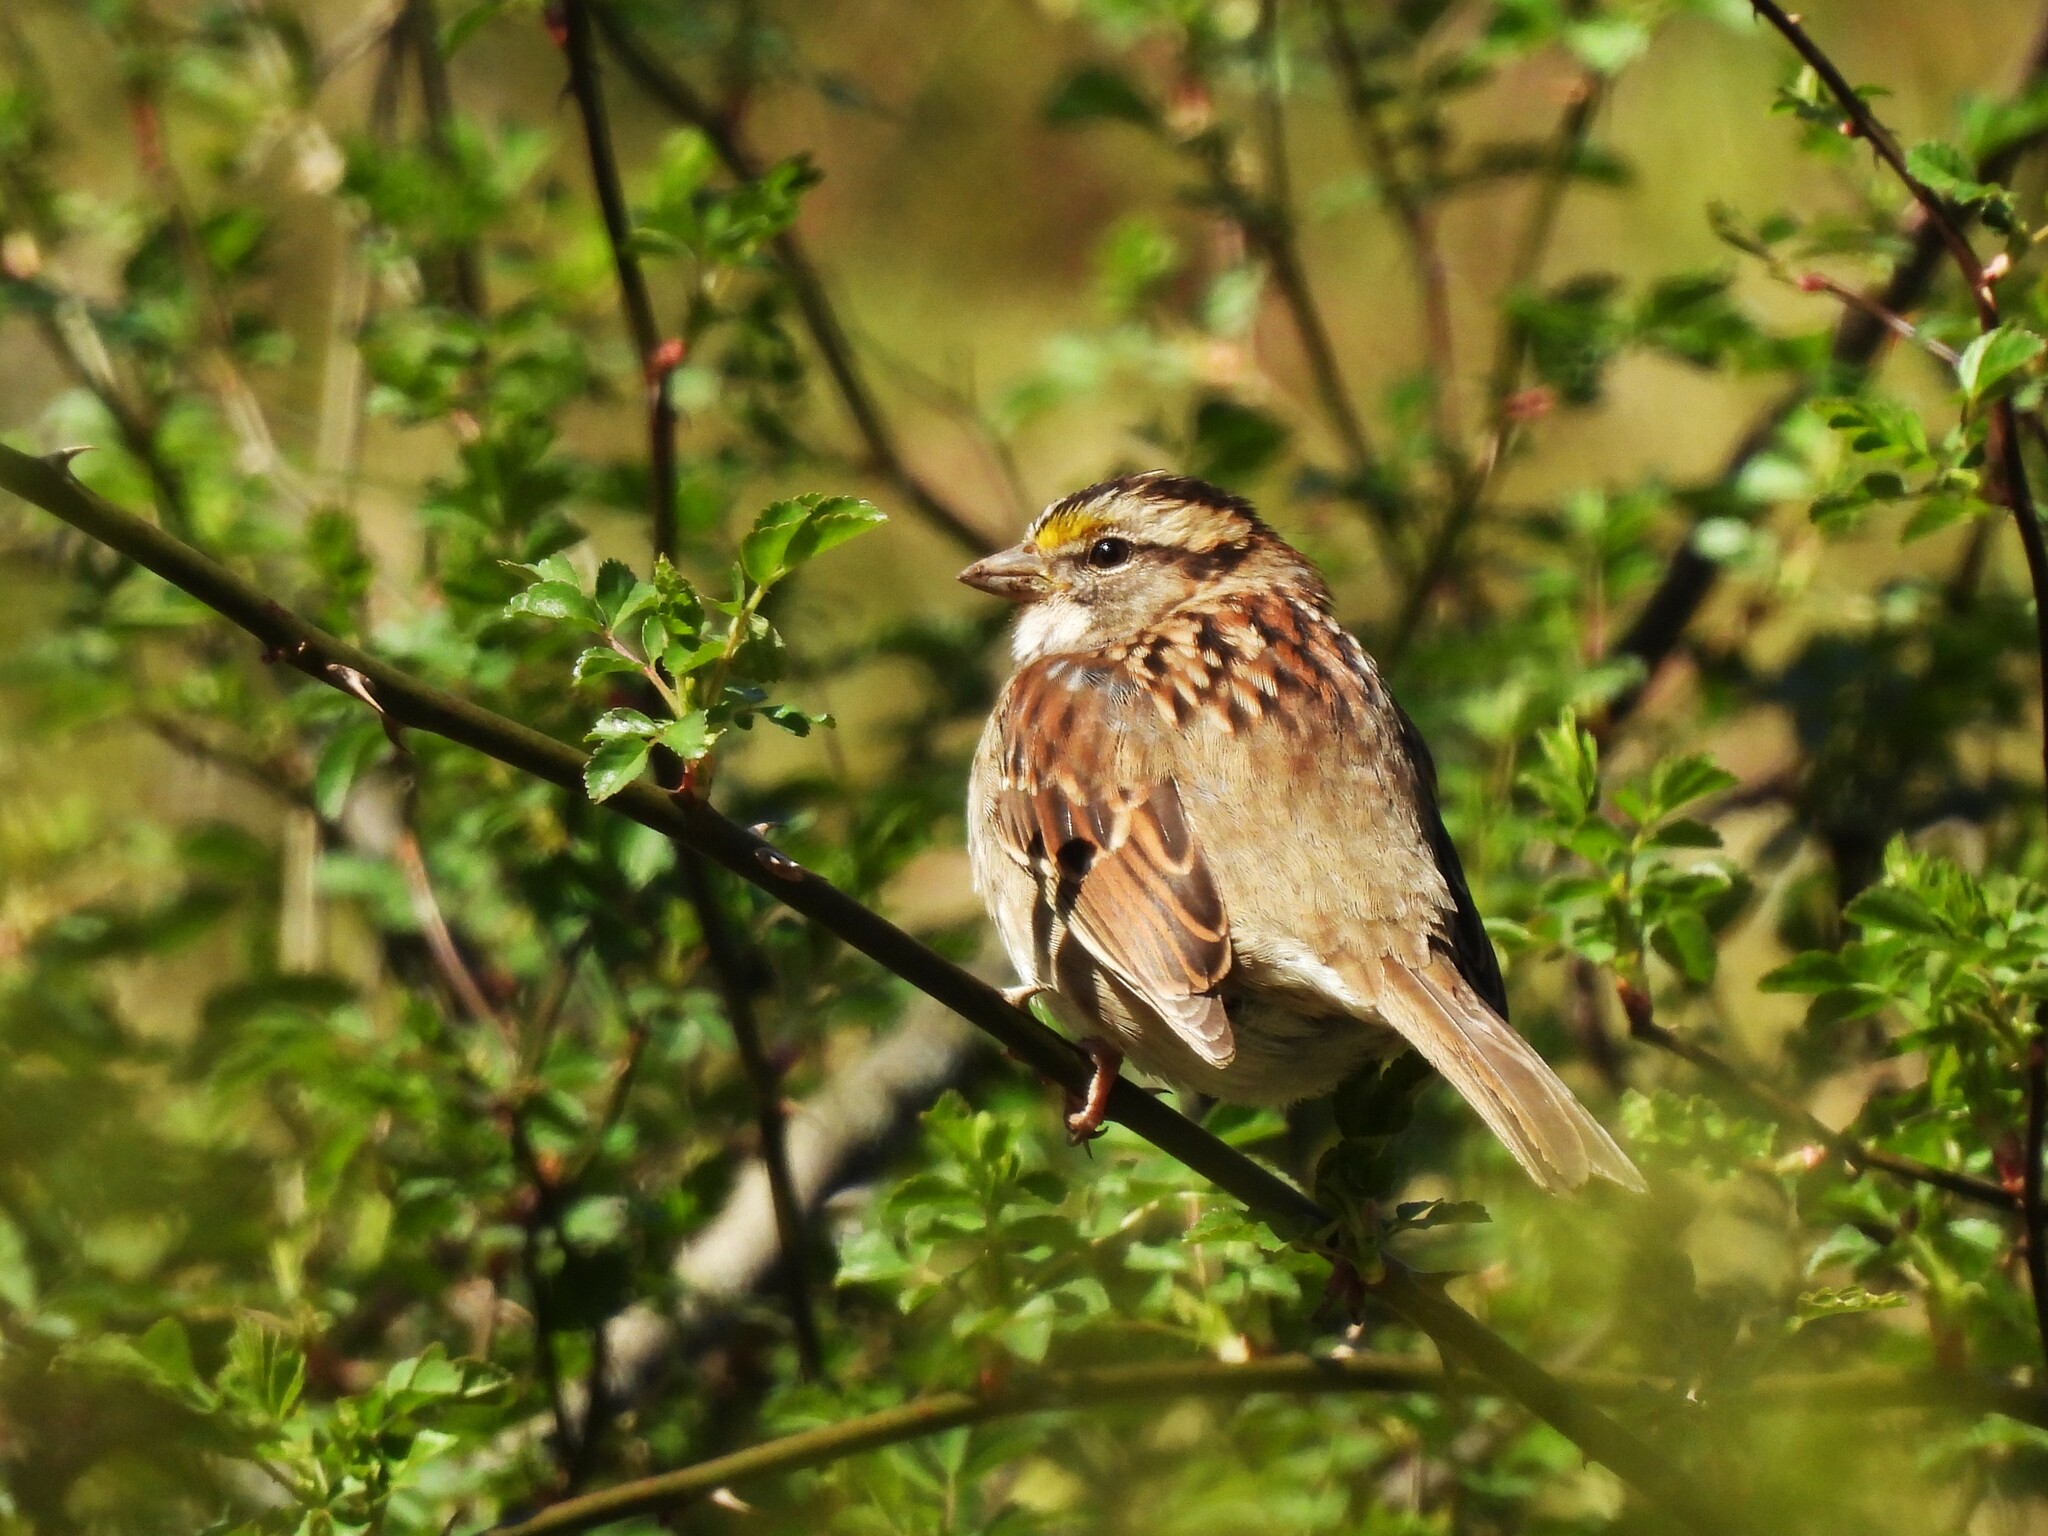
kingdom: Animalia
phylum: Chordata
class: Aves
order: Passeriformes
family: Passerellidae
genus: Zonotrichia
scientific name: Zonotrichia albicollis
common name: White-throated sparrow
